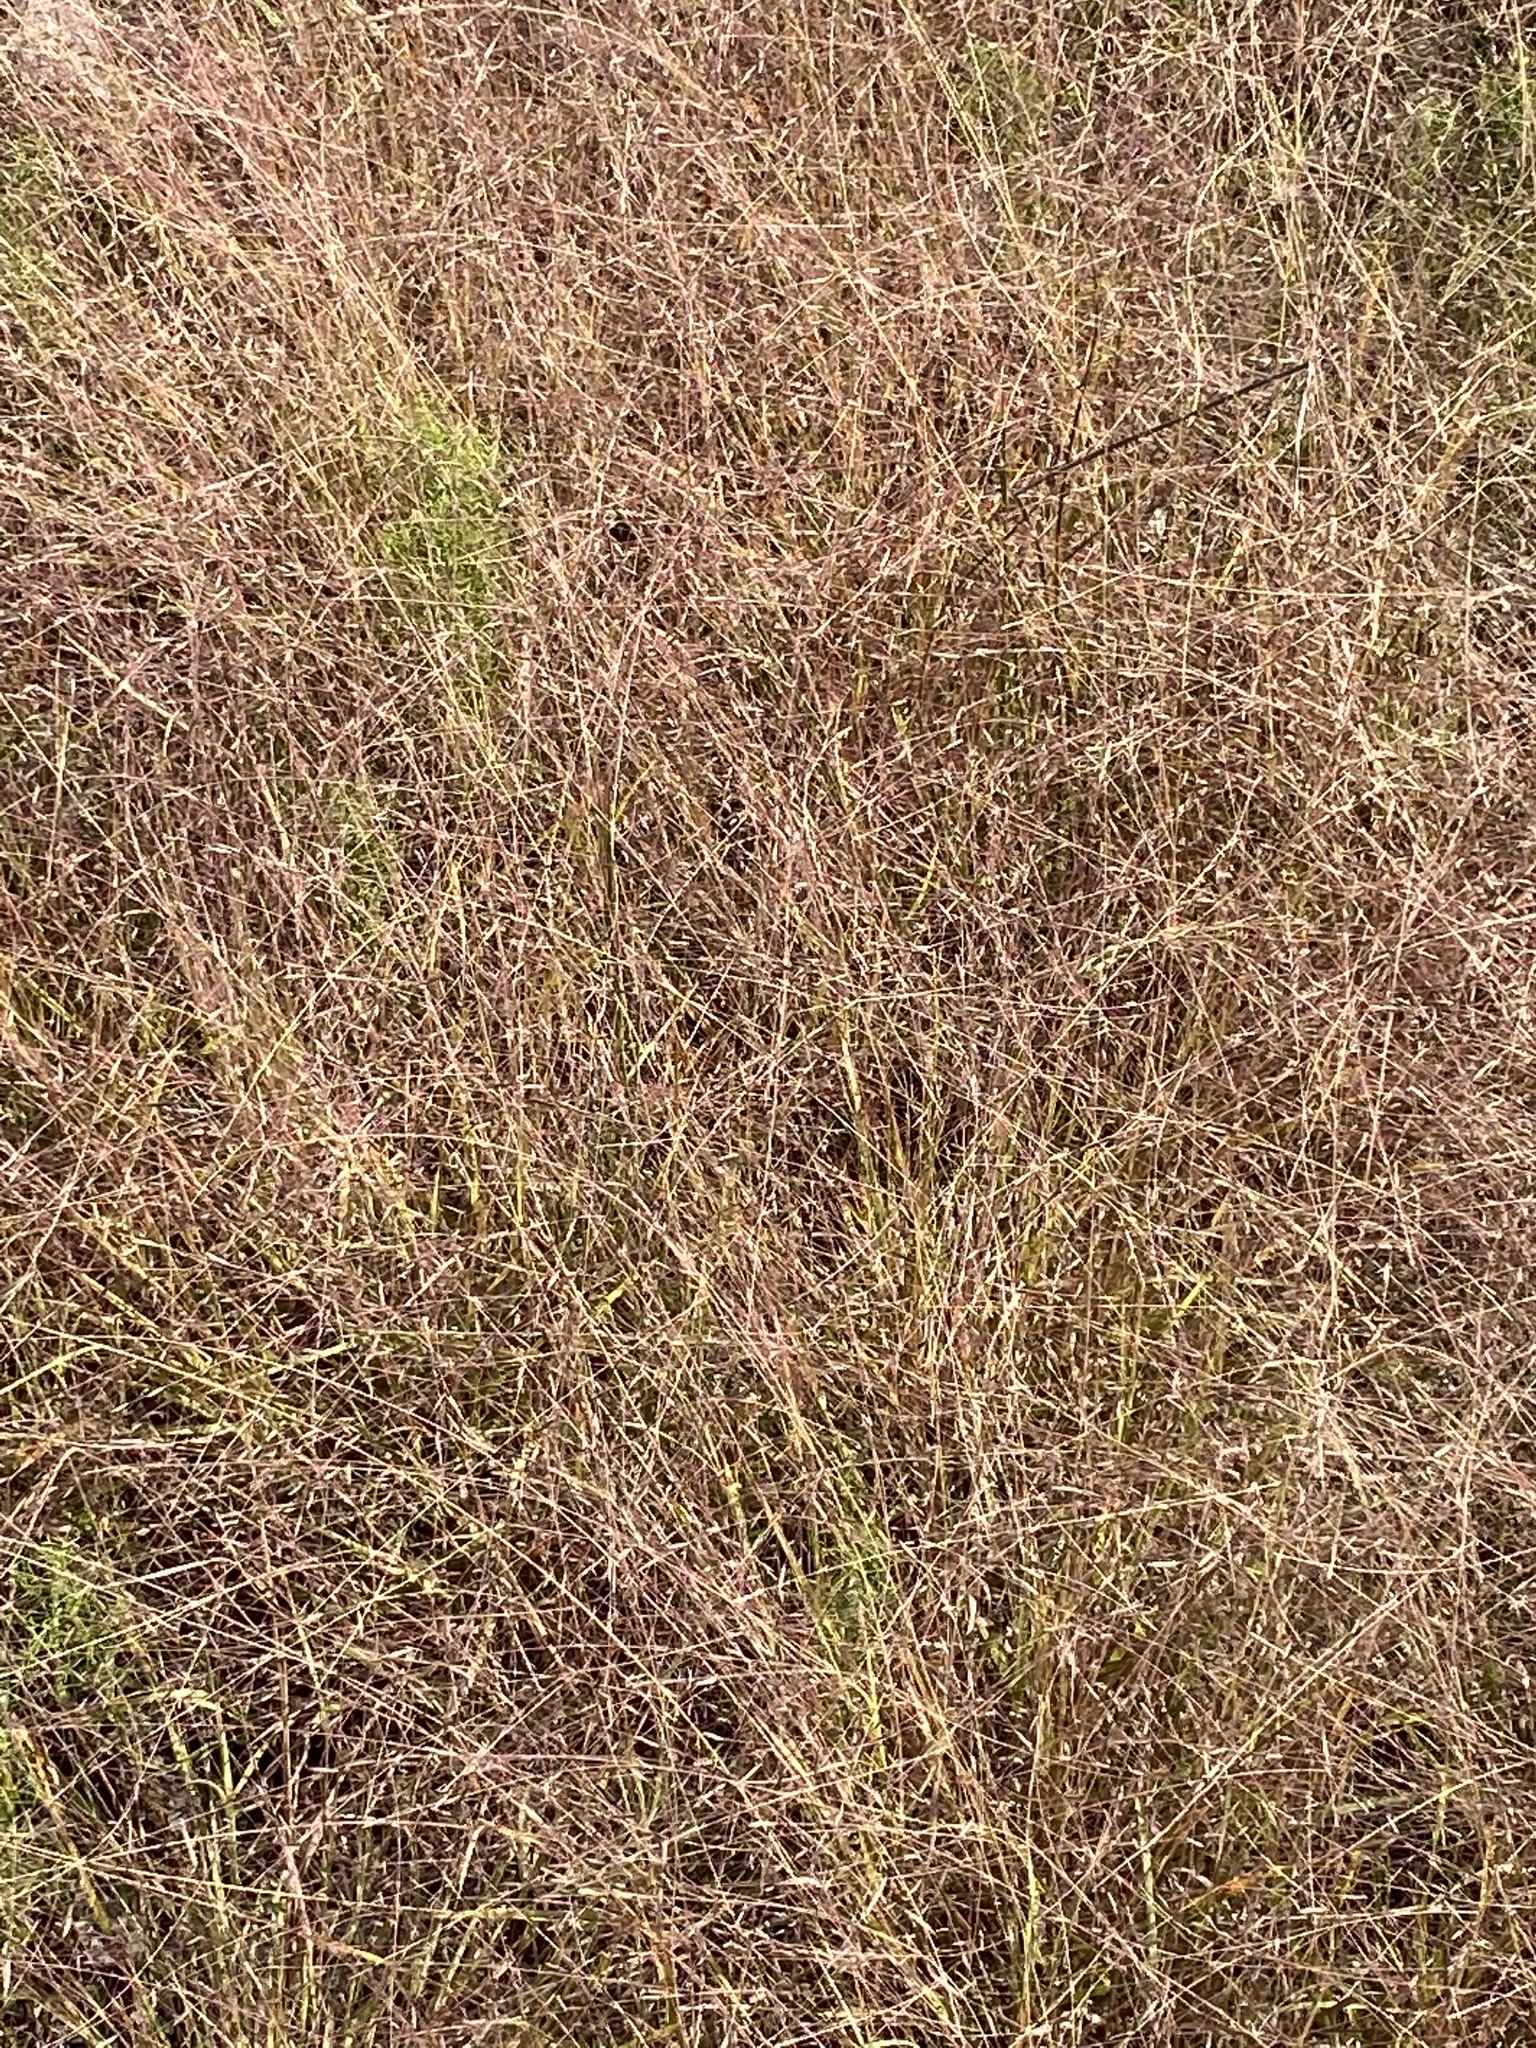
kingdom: Plantae
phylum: Tracheophyta
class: Liliopsida
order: Poales
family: Poaceae
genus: Eragrostis
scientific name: Eragrostis spectabilis
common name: Petticoat-climber
